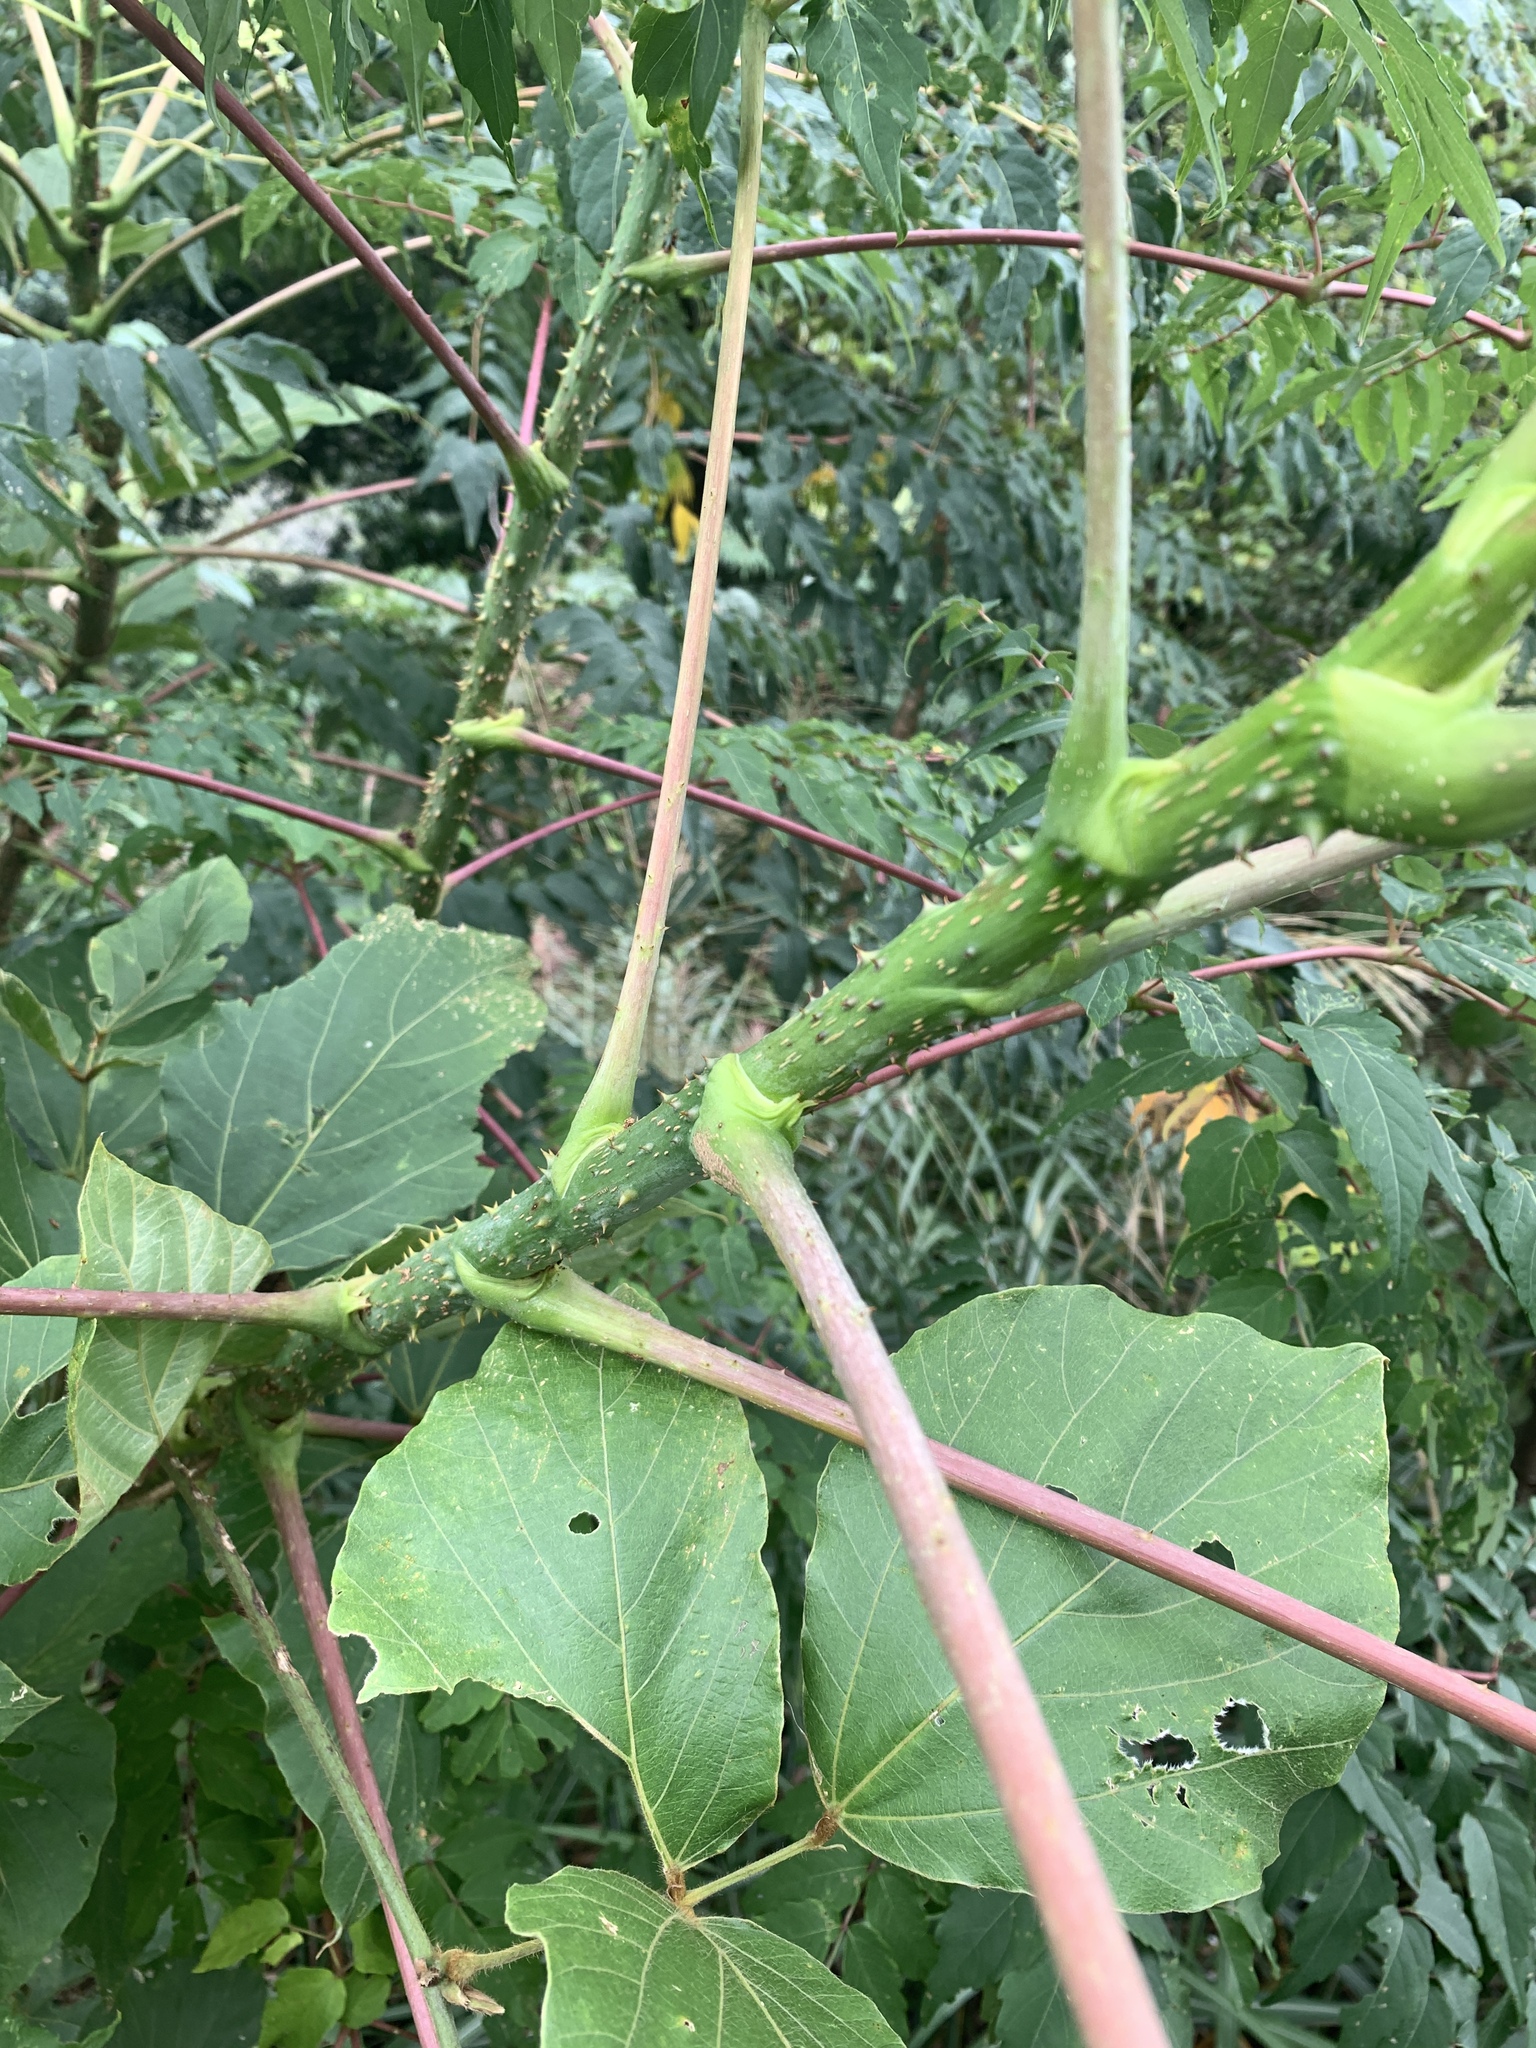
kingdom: Plantae
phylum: Tracheophyta
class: Magnoliopsida
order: Apiales
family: Araliaceae
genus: Aralia
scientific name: Aralia bipinnata
